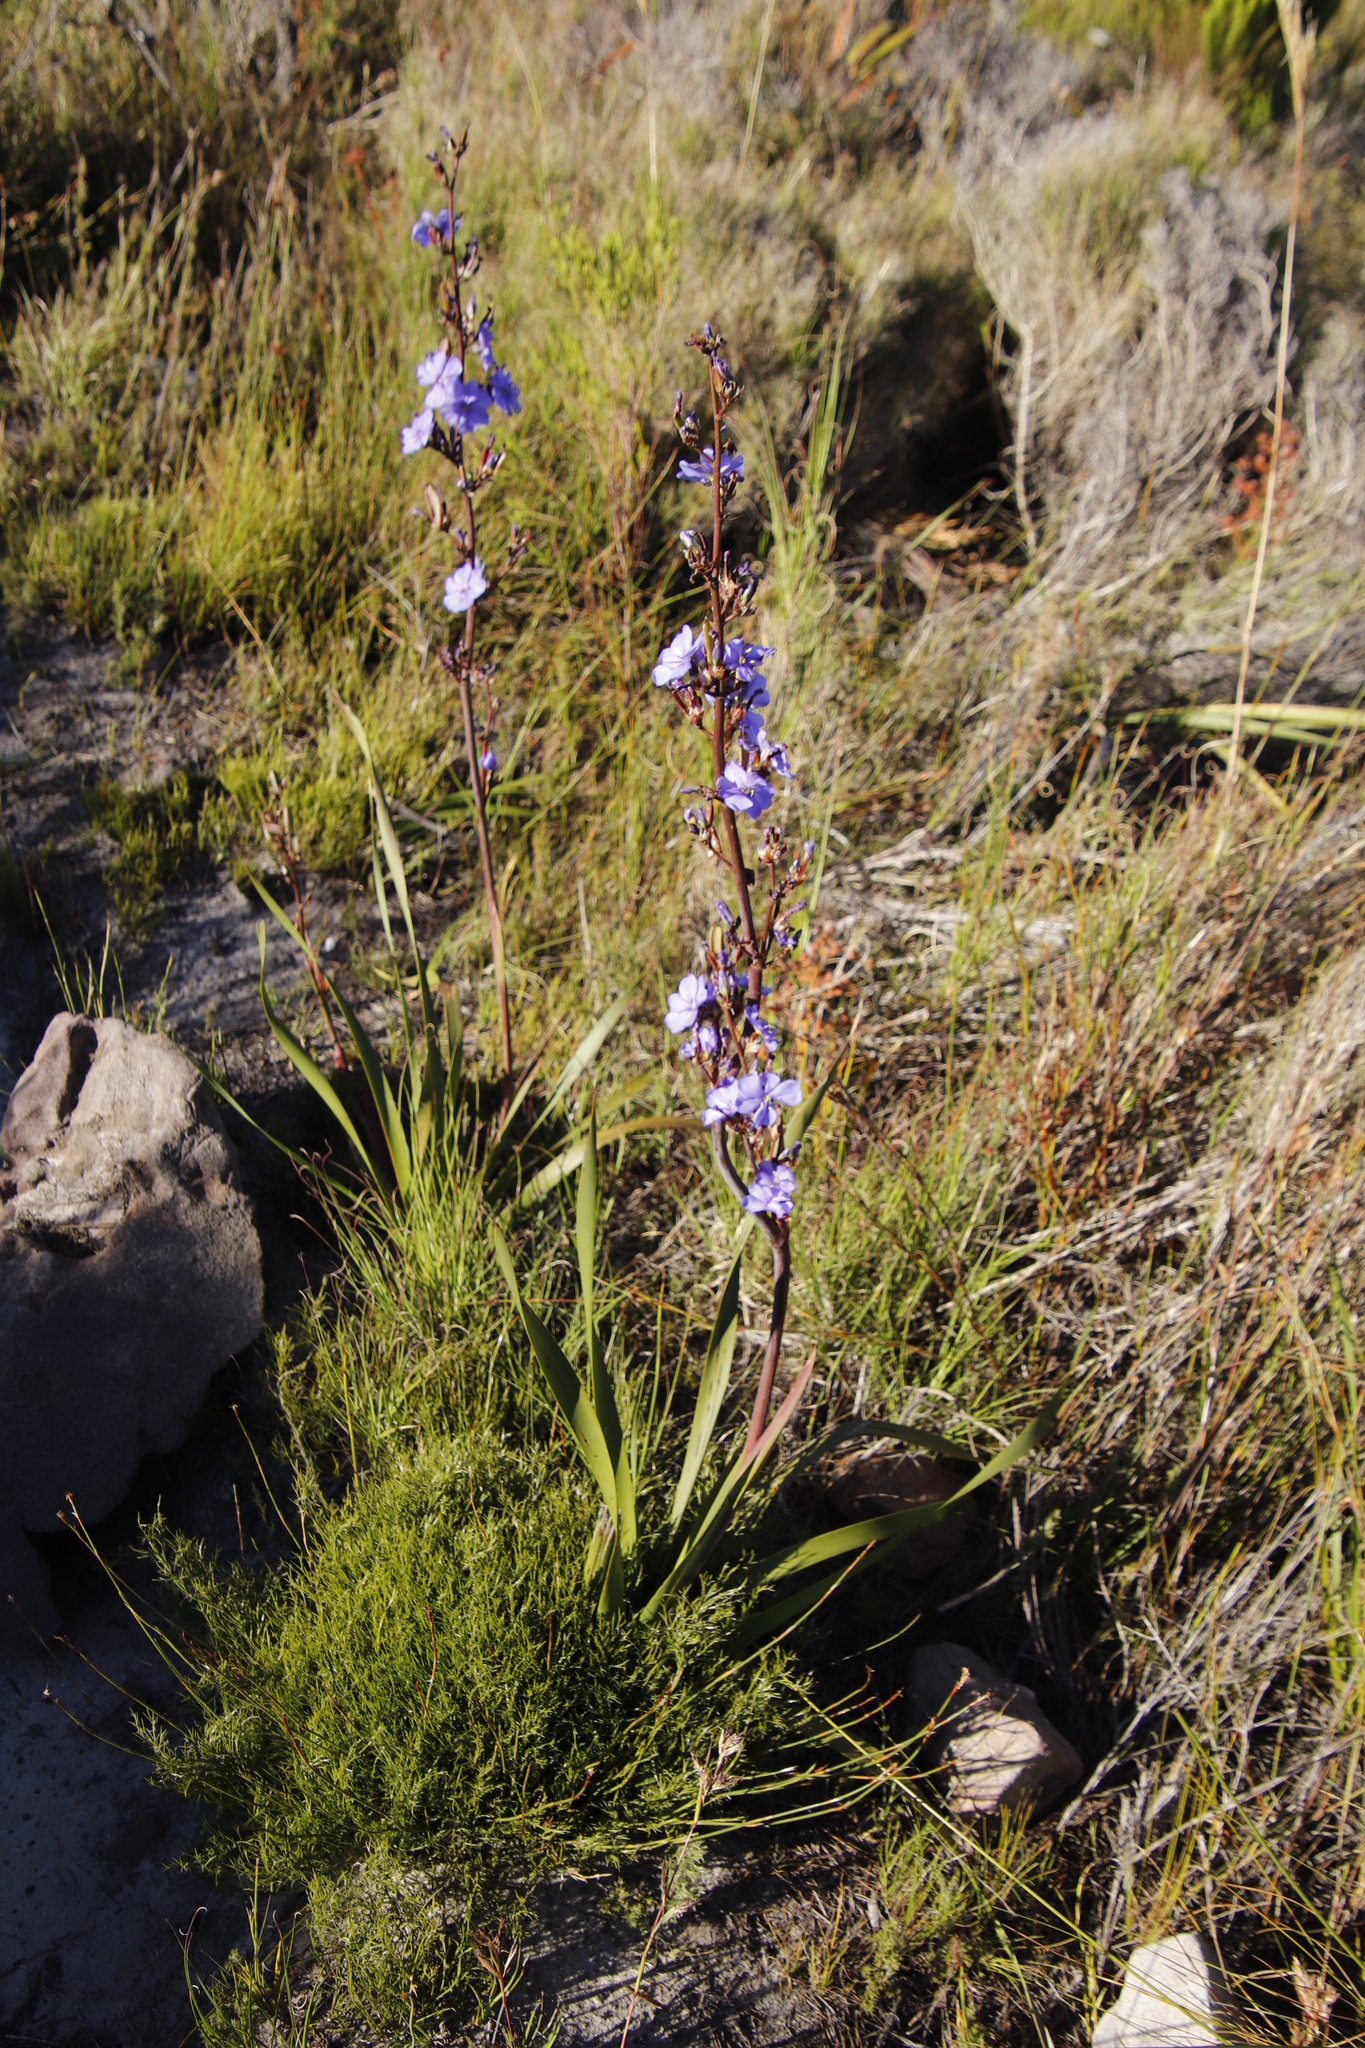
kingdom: Plantae
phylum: Tracheophyta
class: Liliopsida
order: Asparagales
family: Iridaceae
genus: Aristea
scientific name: Aristea bakeri
